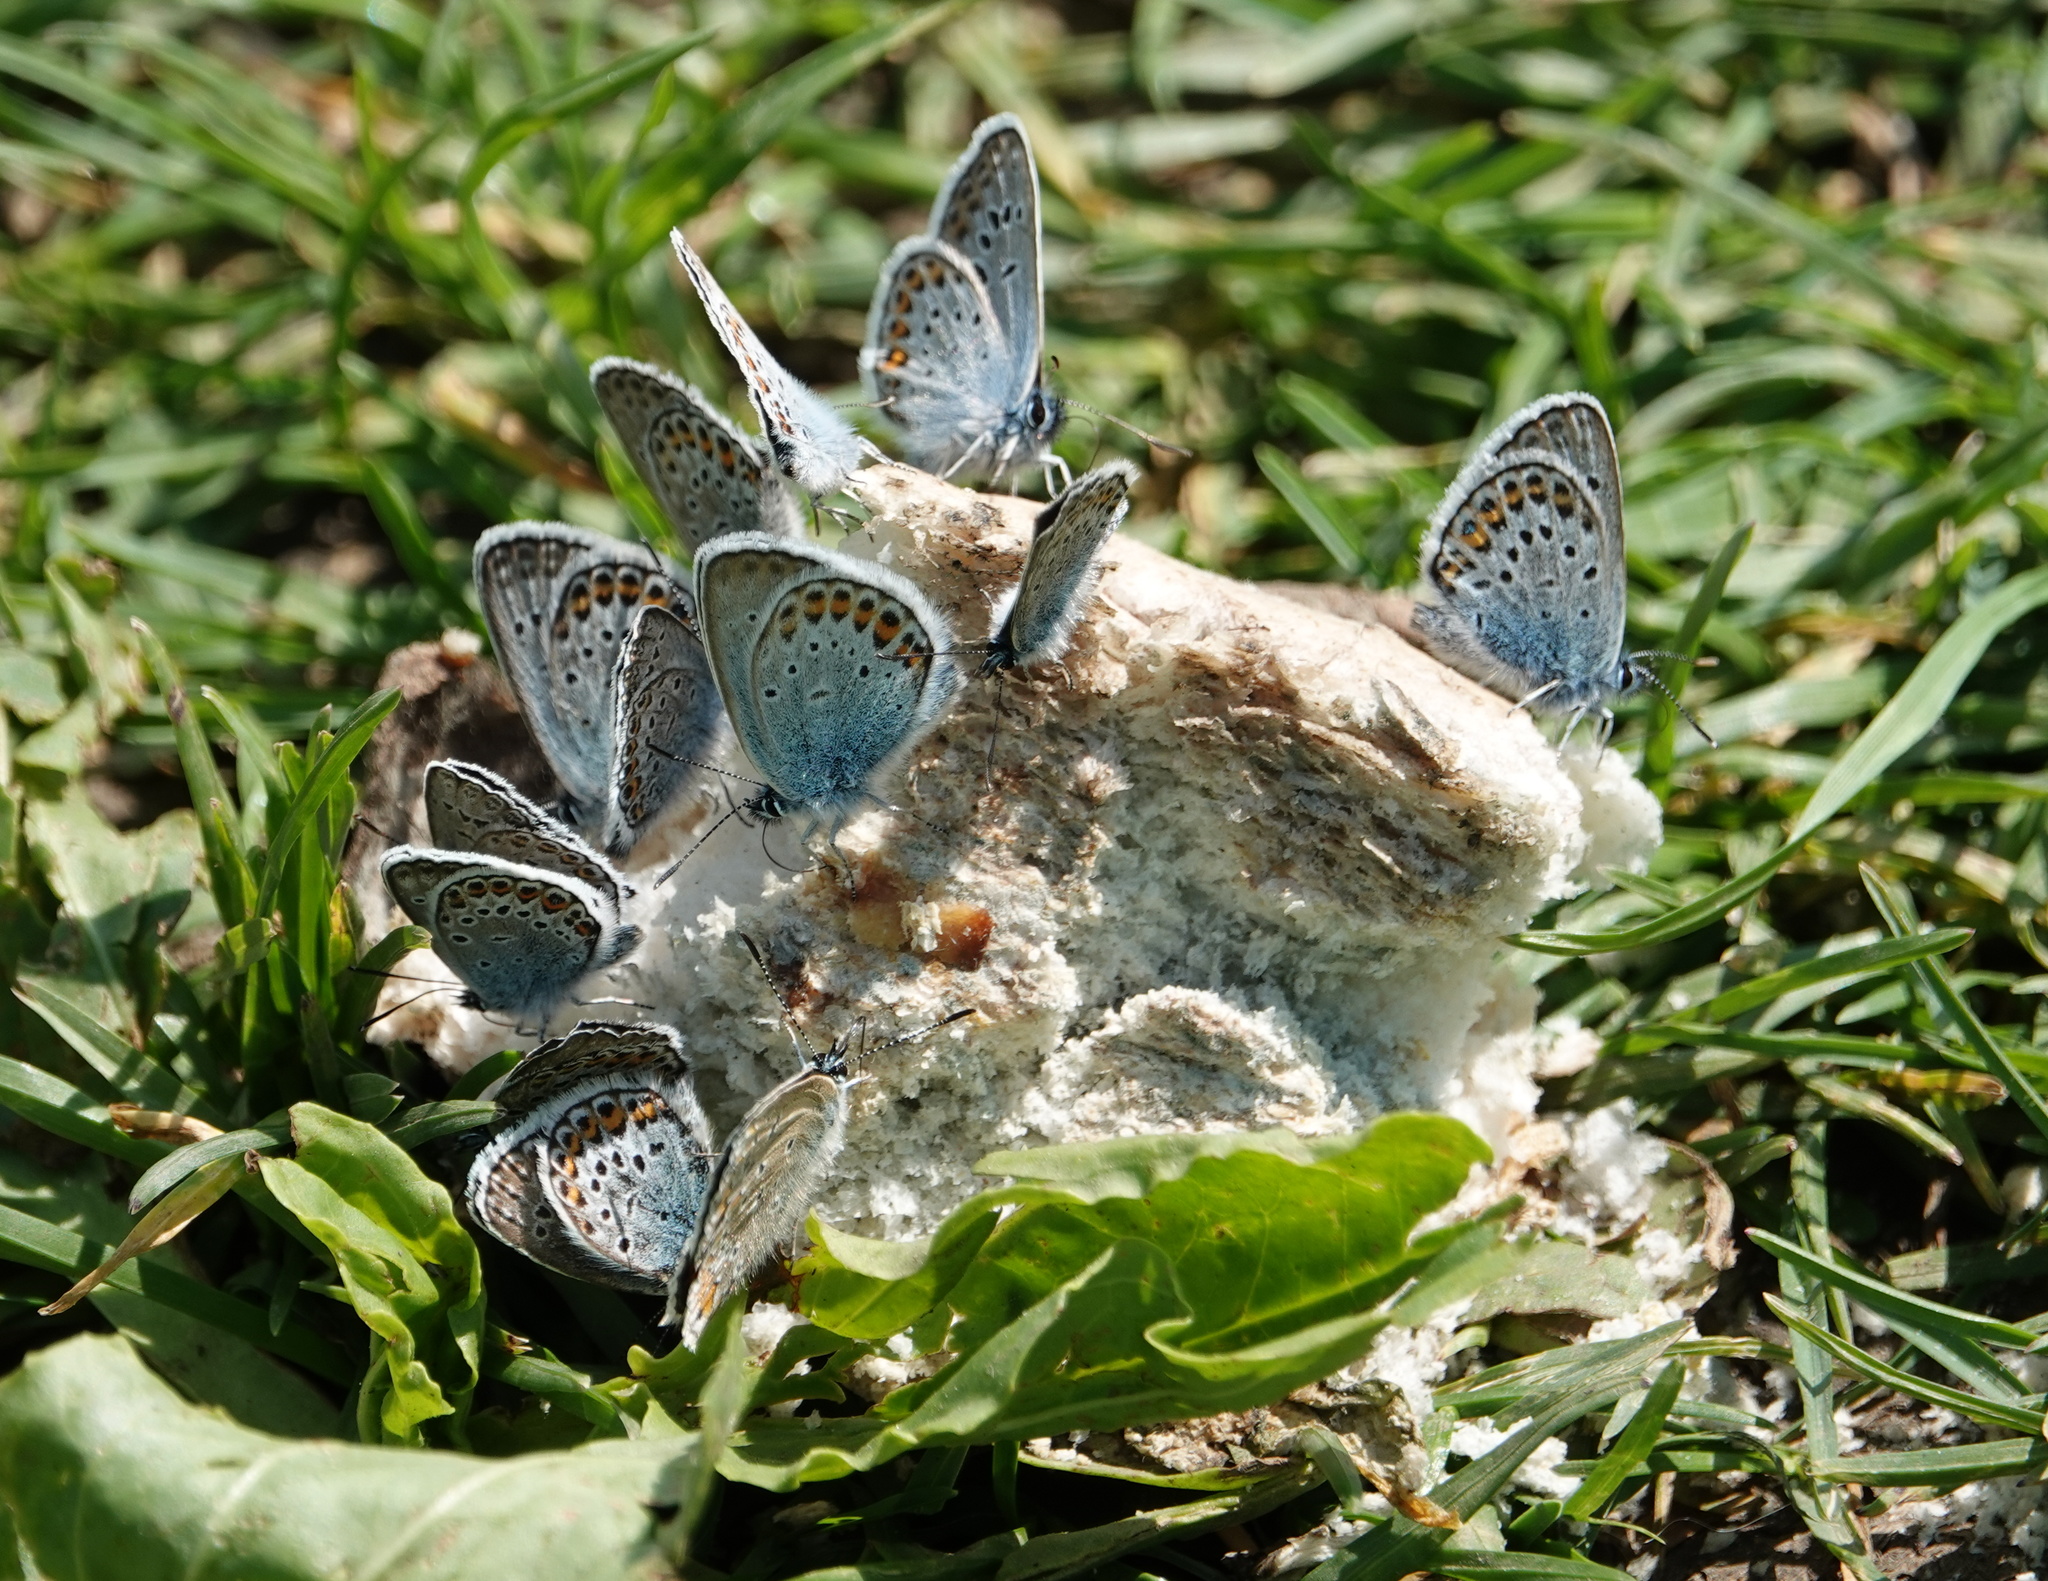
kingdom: Animalia
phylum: Arthropoda
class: Insecta
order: Lepidoptera
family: Lycaenidae
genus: Plebejus
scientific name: Plebejus argus
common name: Silver-studded blue
